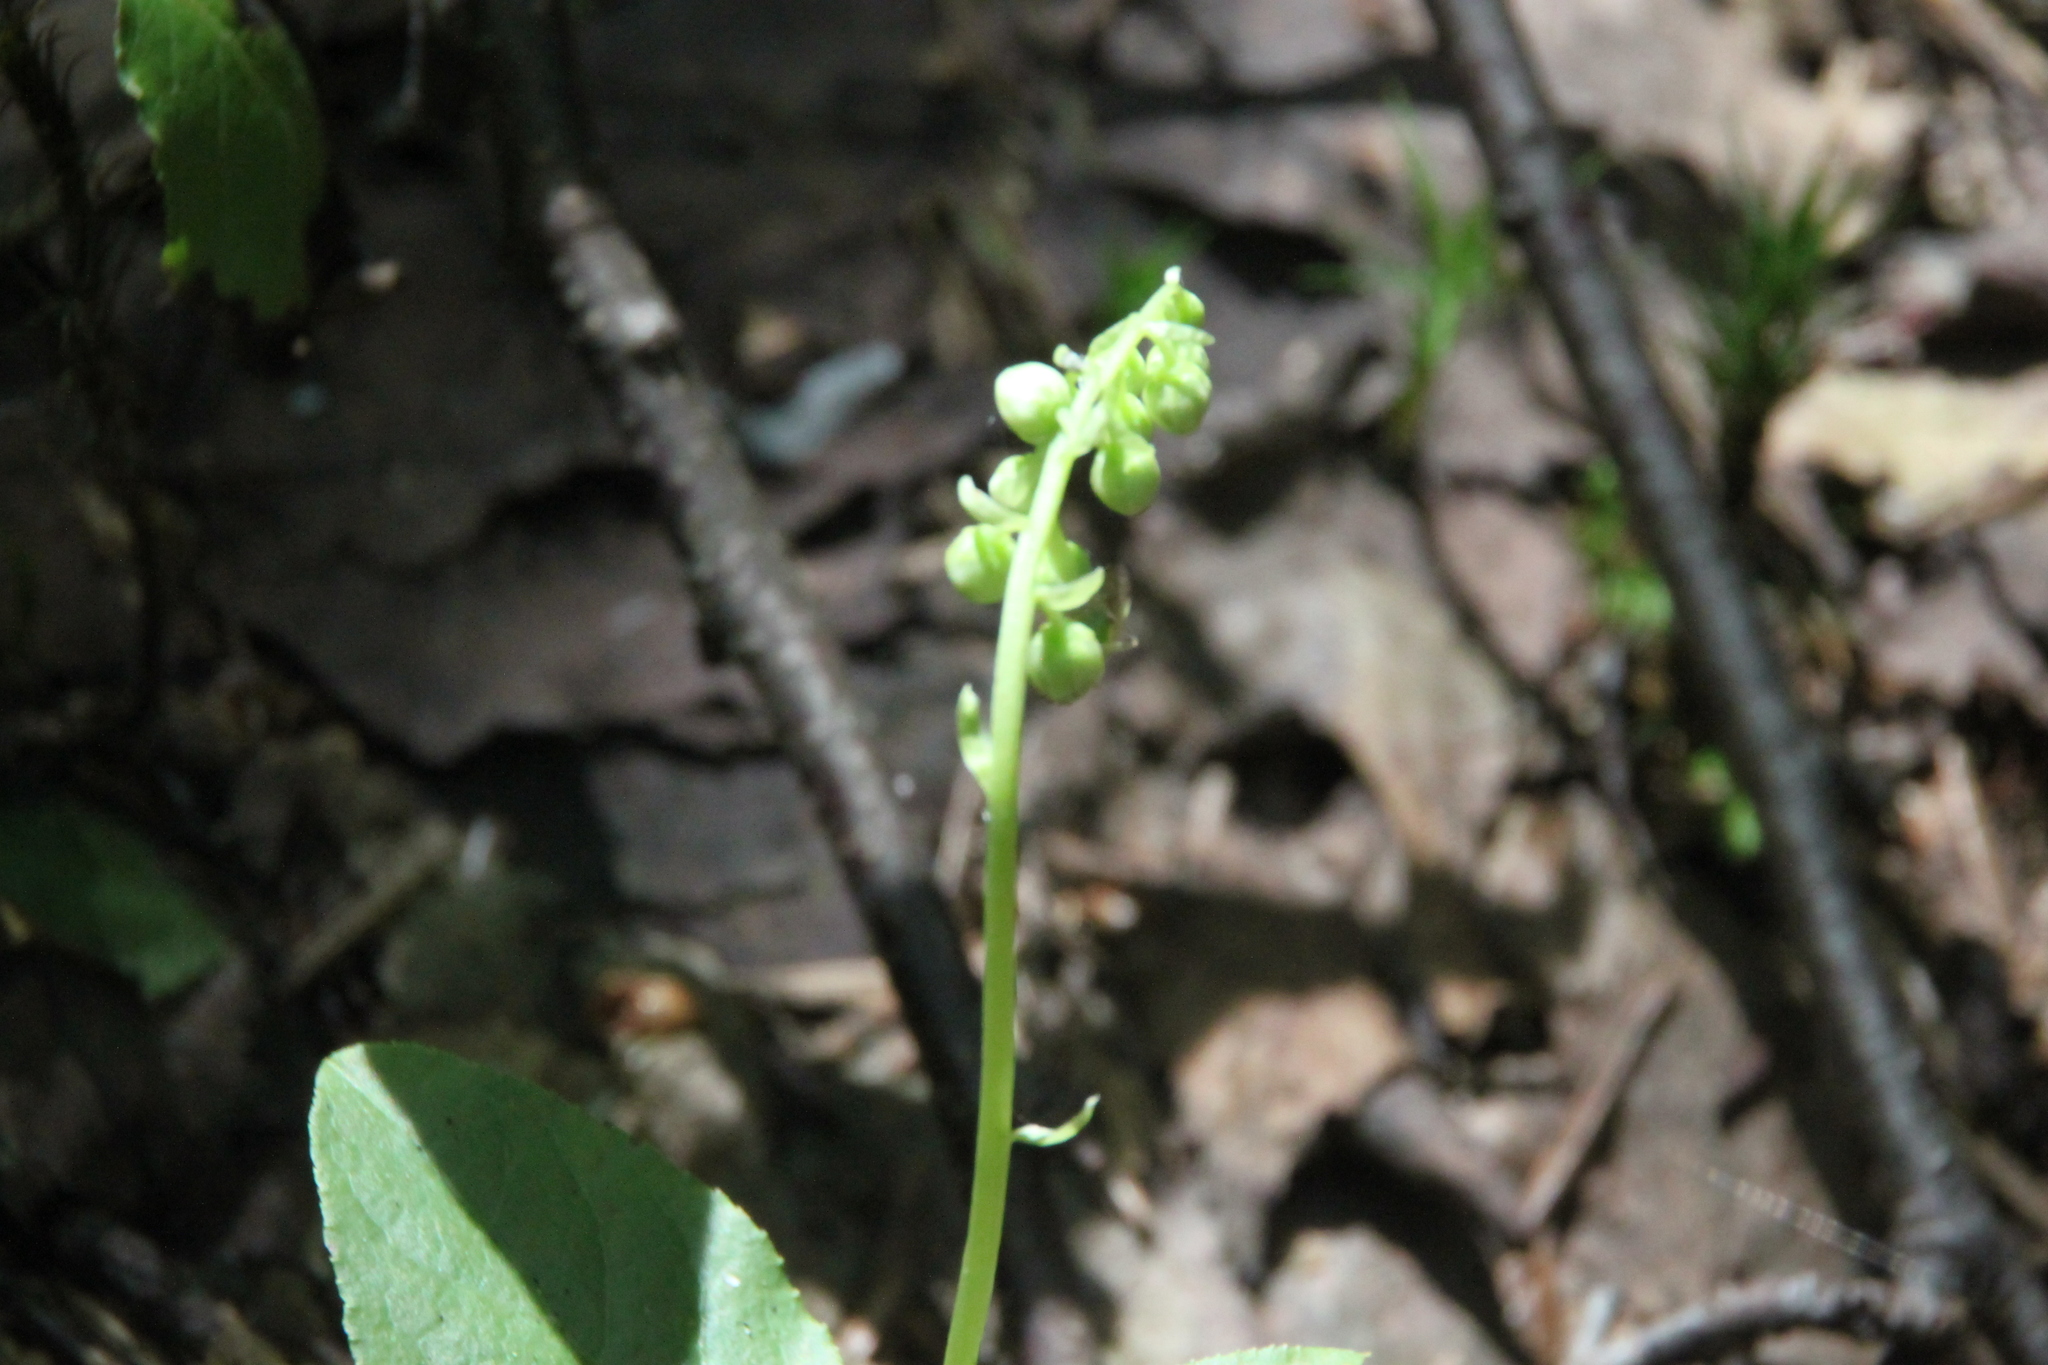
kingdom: Plantae
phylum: Tracheophyta
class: Magnoliopsida
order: Ericales
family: Ericaceae
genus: Orthilia
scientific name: Orthilia secunda
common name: One-sided orthilia
